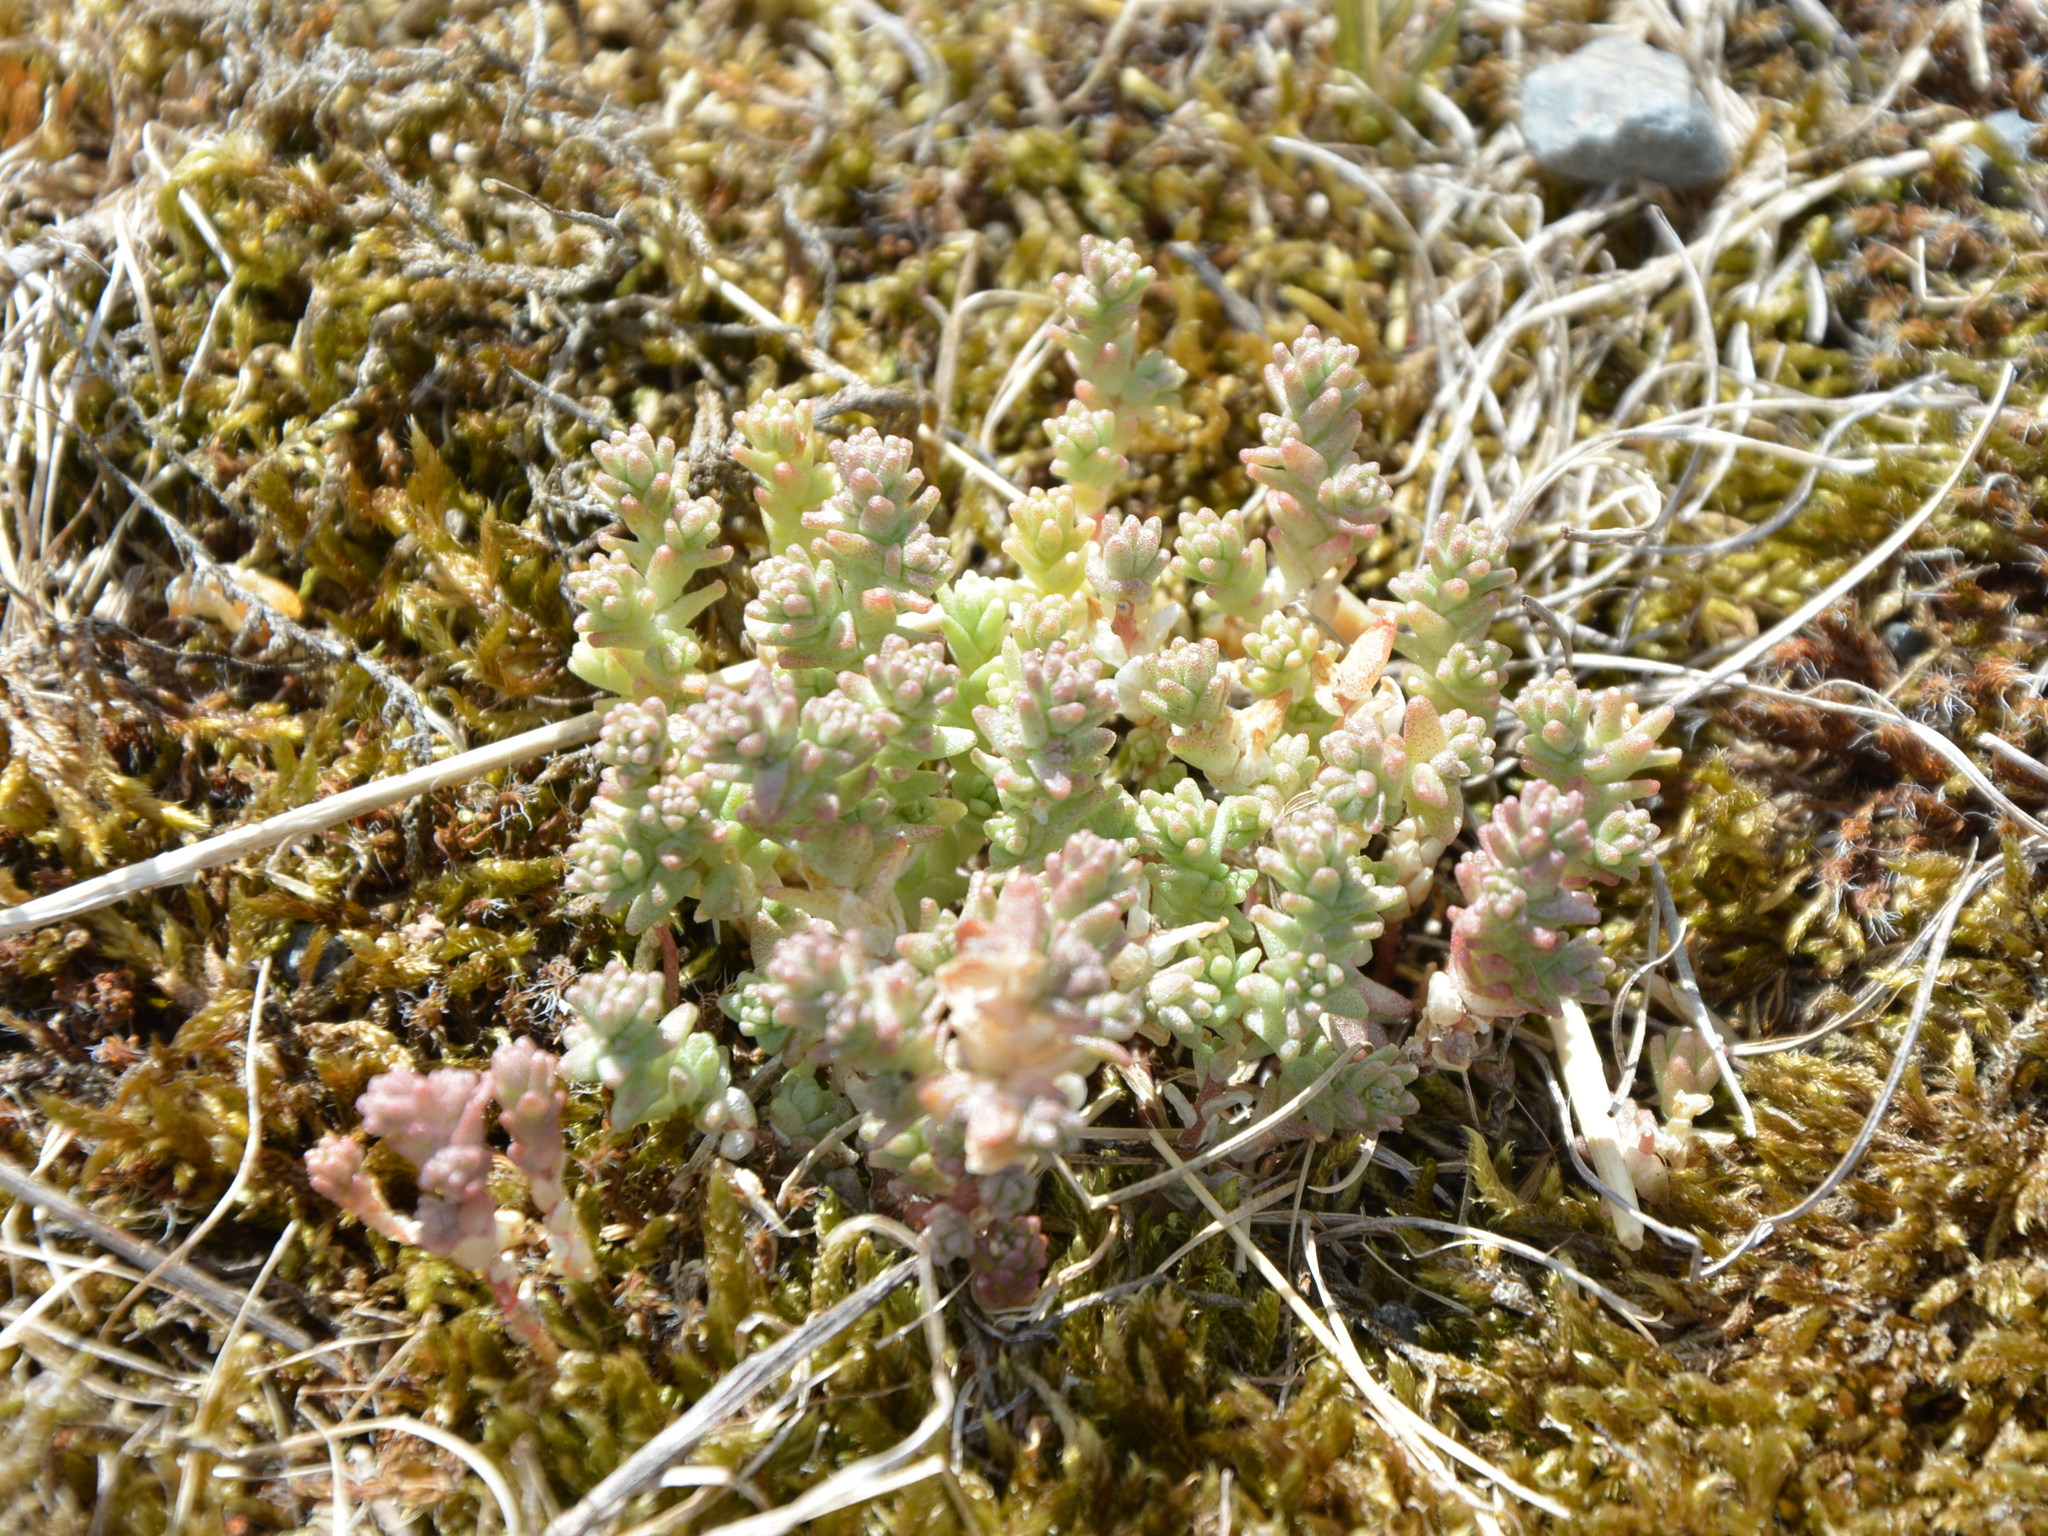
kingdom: Plantae
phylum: Tracheophyta
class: Magnoliopsida
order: Saxifragales
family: Crassulaceae
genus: Sedum
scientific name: Sedum acre
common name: Biting stonecrop
